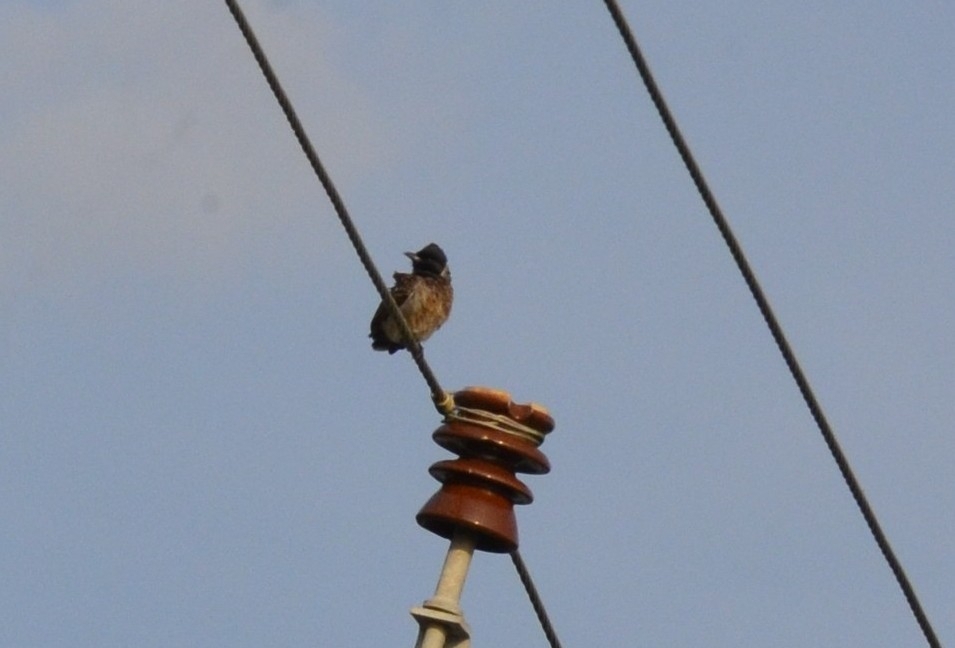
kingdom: Animalia
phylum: Chordata
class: Aves
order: Passeriformes
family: Pycnonotidae
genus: Pycnonotus
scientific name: Pycnonotus cafer
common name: Red-vented bulbul
